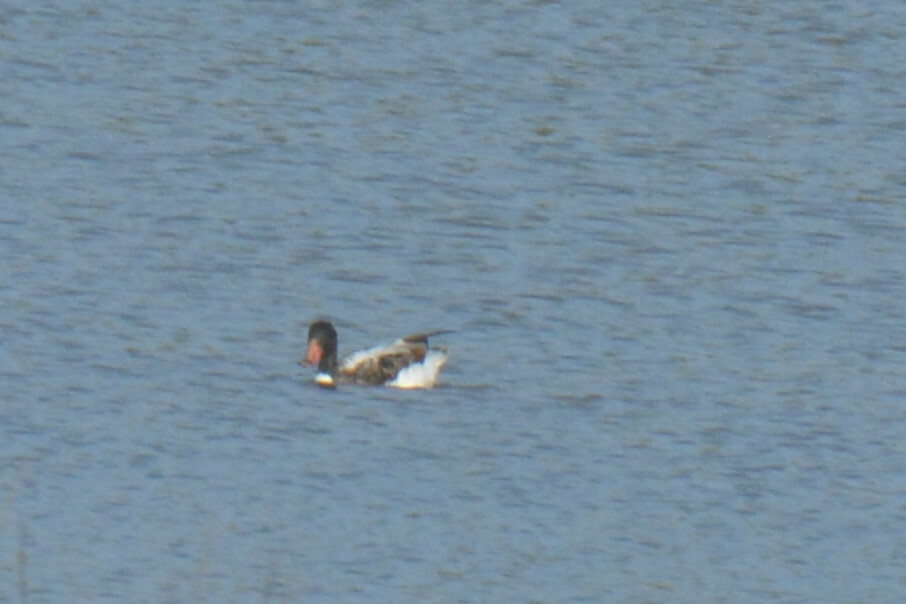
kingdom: Animalia
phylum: Chordata
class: Aves
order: Anseriformes
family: Anatidae
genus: Tadorna
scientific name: Tadorna tadorna
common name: Common shelduck
